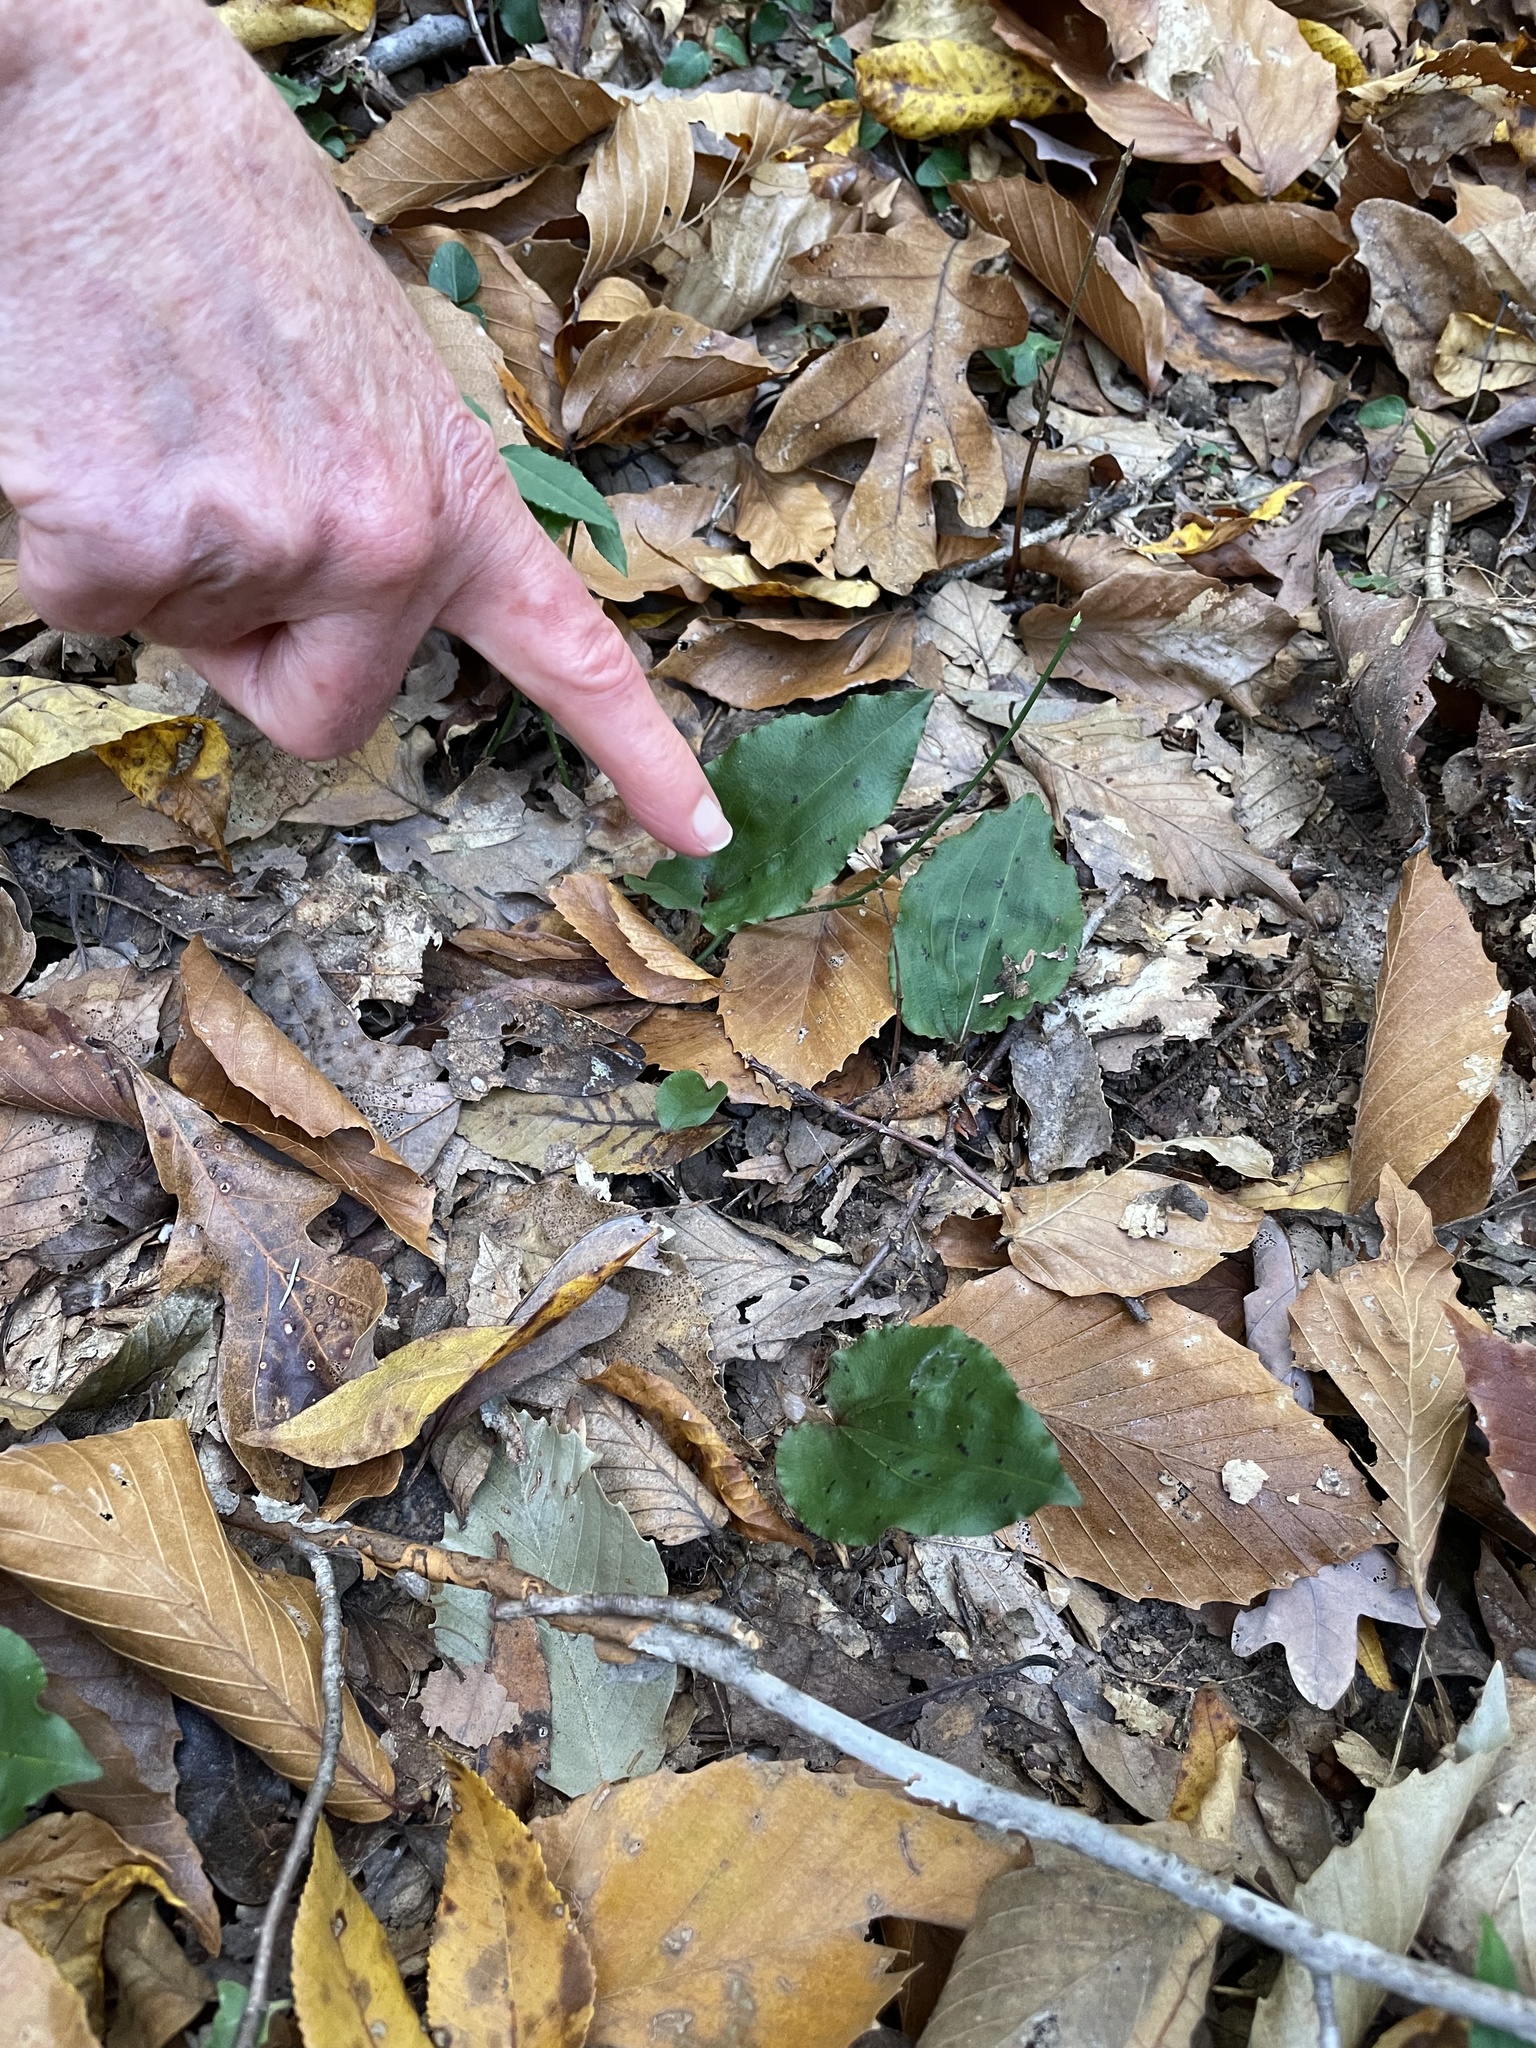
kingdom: Plantae
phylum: Tracheophyta
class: Liliopsida
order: Asparagales
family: Orchidaceae
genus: Tipularia
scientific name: Tipularia discolor
